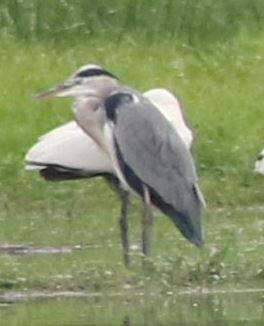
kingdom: Animalia
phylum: Chordata
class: Aves
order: Pelecaniformes
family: Ardeidae
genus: Ardea
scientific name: Ardea cinerea
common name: Grey heron
